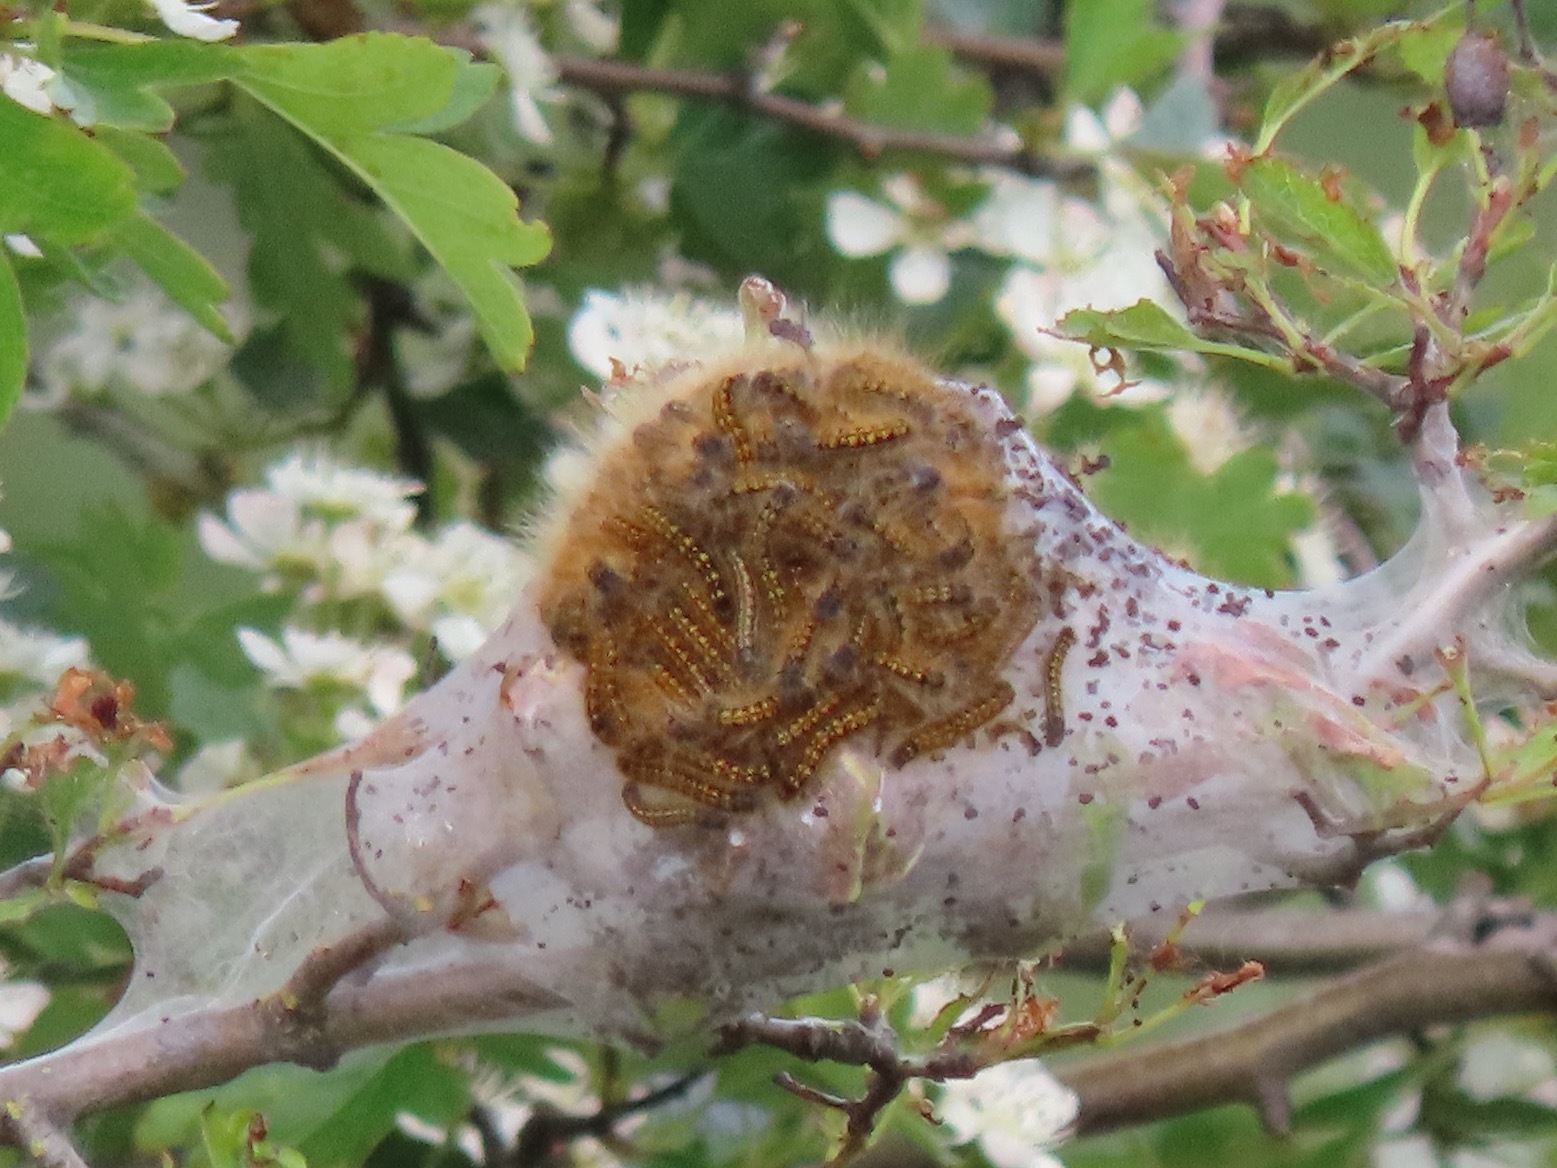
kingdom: Animalia
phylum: Arthropoda
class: Insecta
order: Lepidoptera
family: Lasiocampidae
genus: Malacosoma
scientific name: Malacosoma californica
